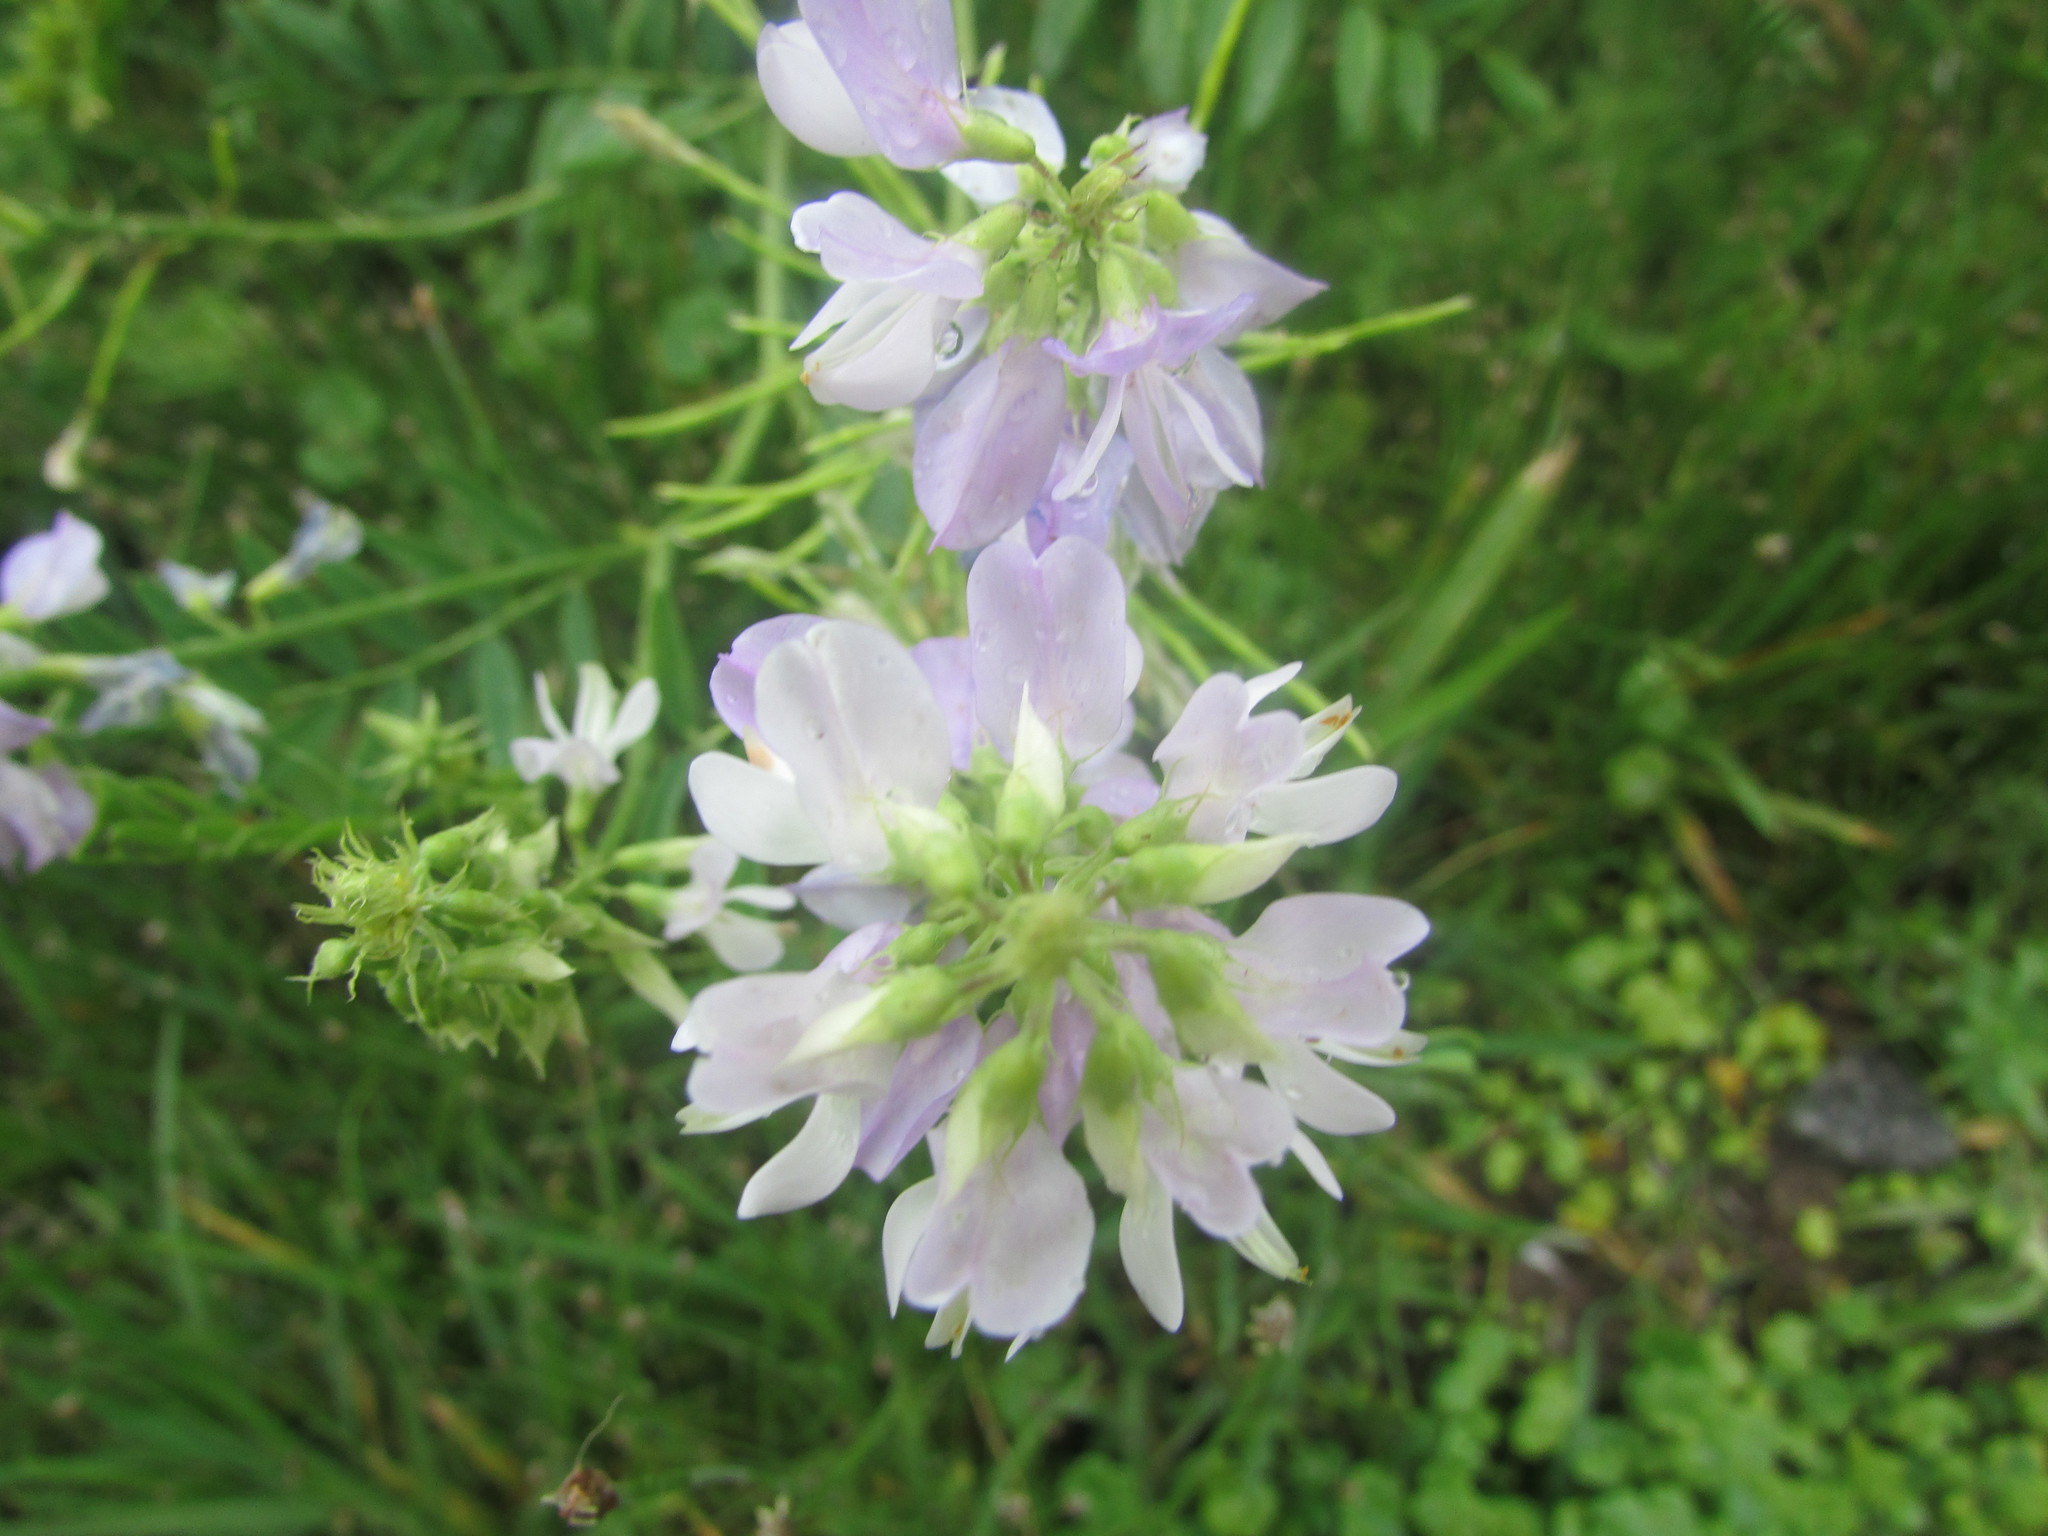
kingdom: Plantae
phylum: Tracheophyta
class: Magnoliopsida
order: Fabales
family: Fabaceae
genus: Galega
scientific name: Galega officinalis
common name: Goat's-rue
